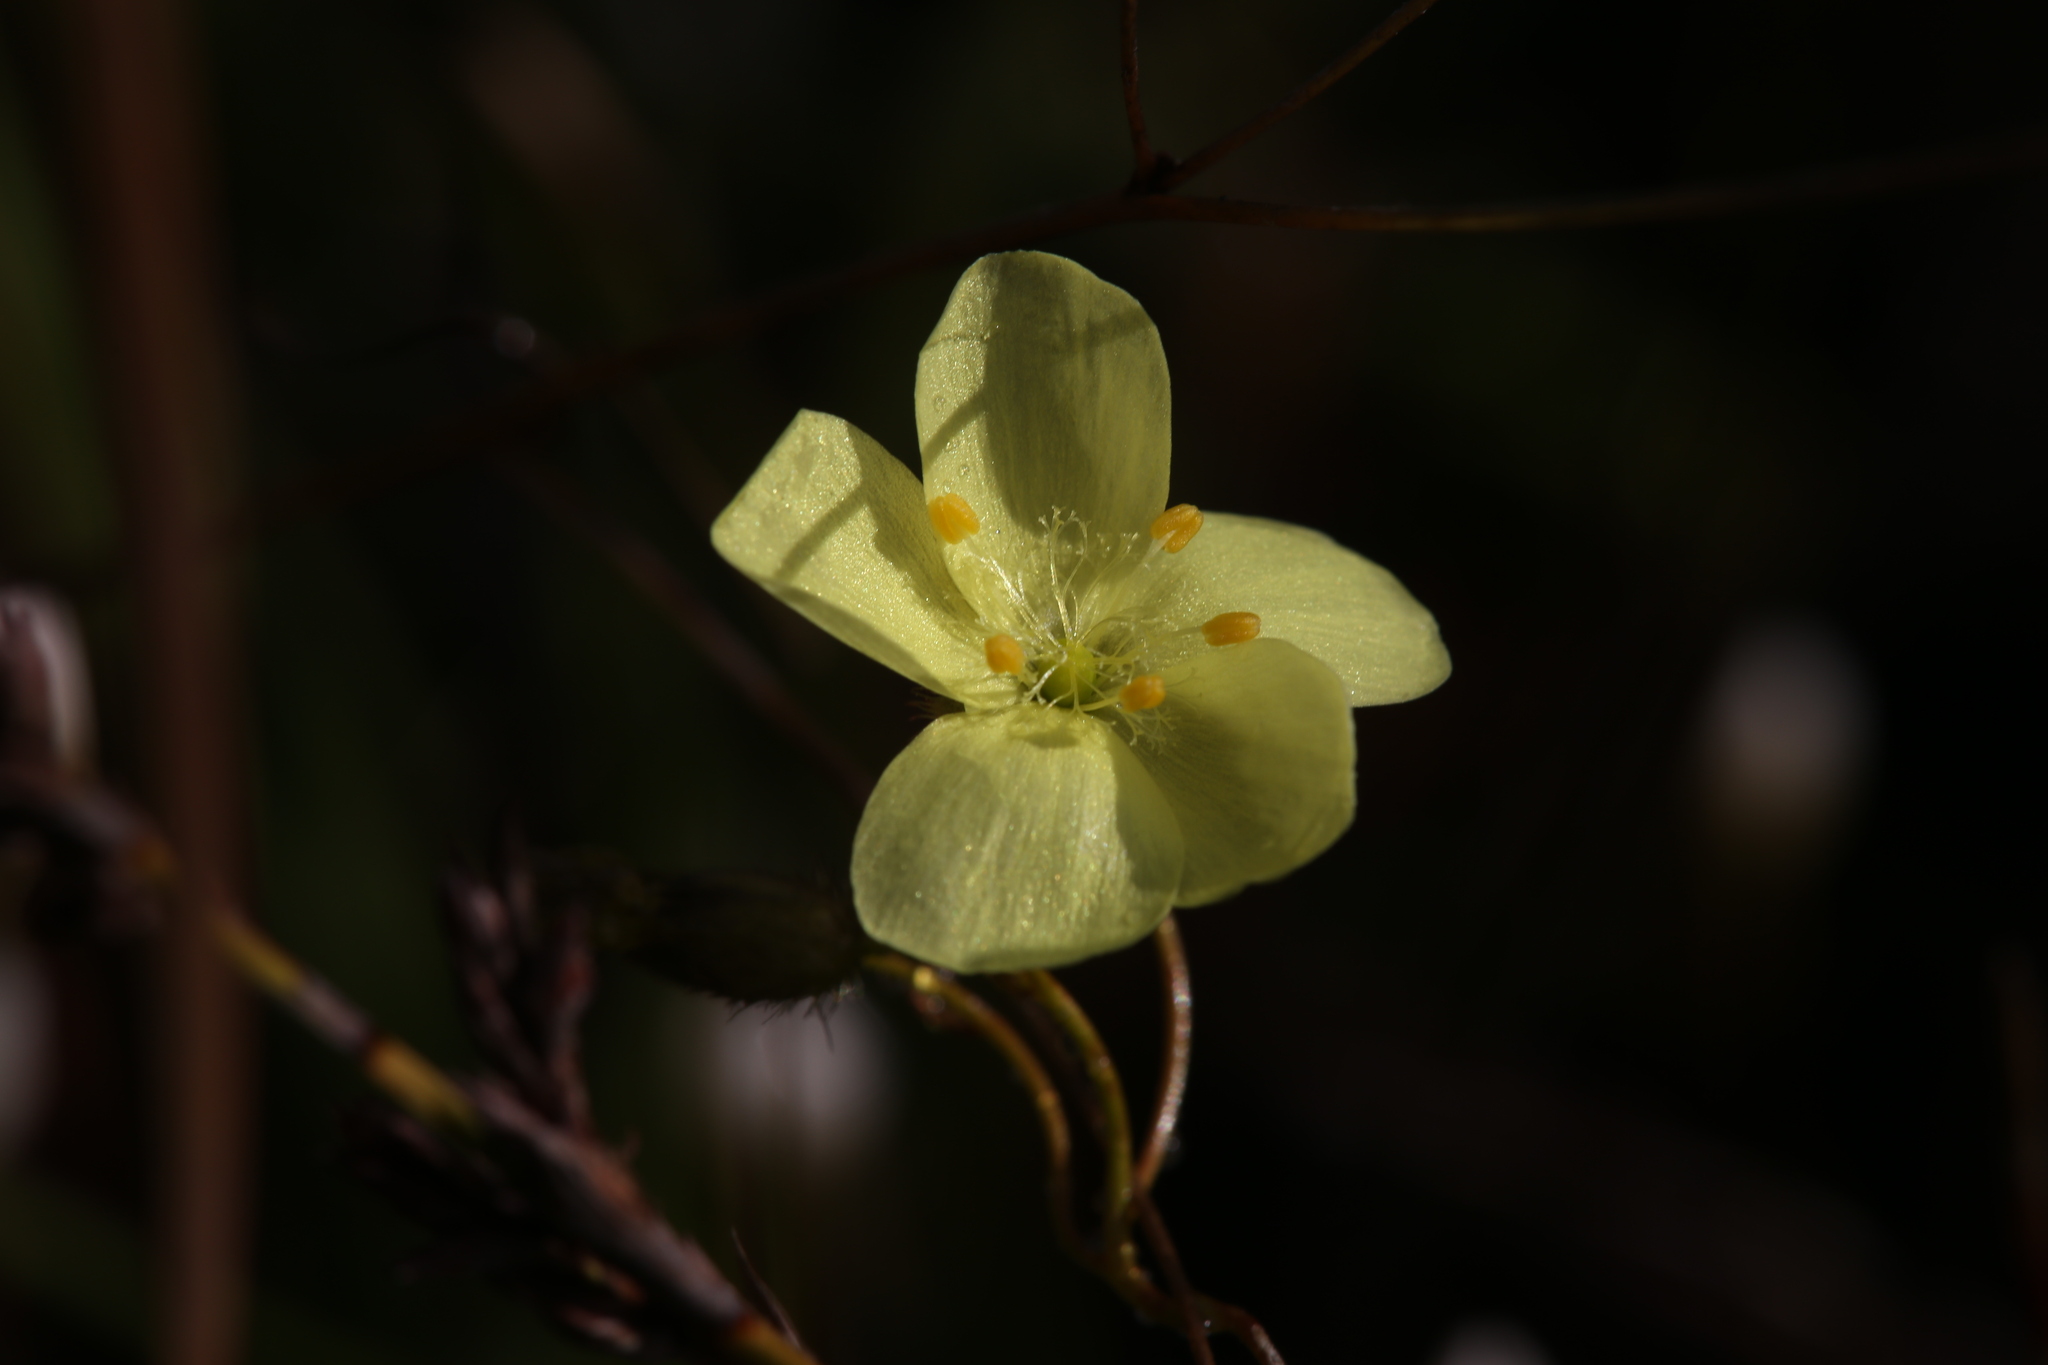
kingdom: Plantae
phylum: Tracheophyta
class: Magnoliopsida
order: Caryophyllales
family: Droseraceae
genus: Drosera
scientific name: Drosera intricata
